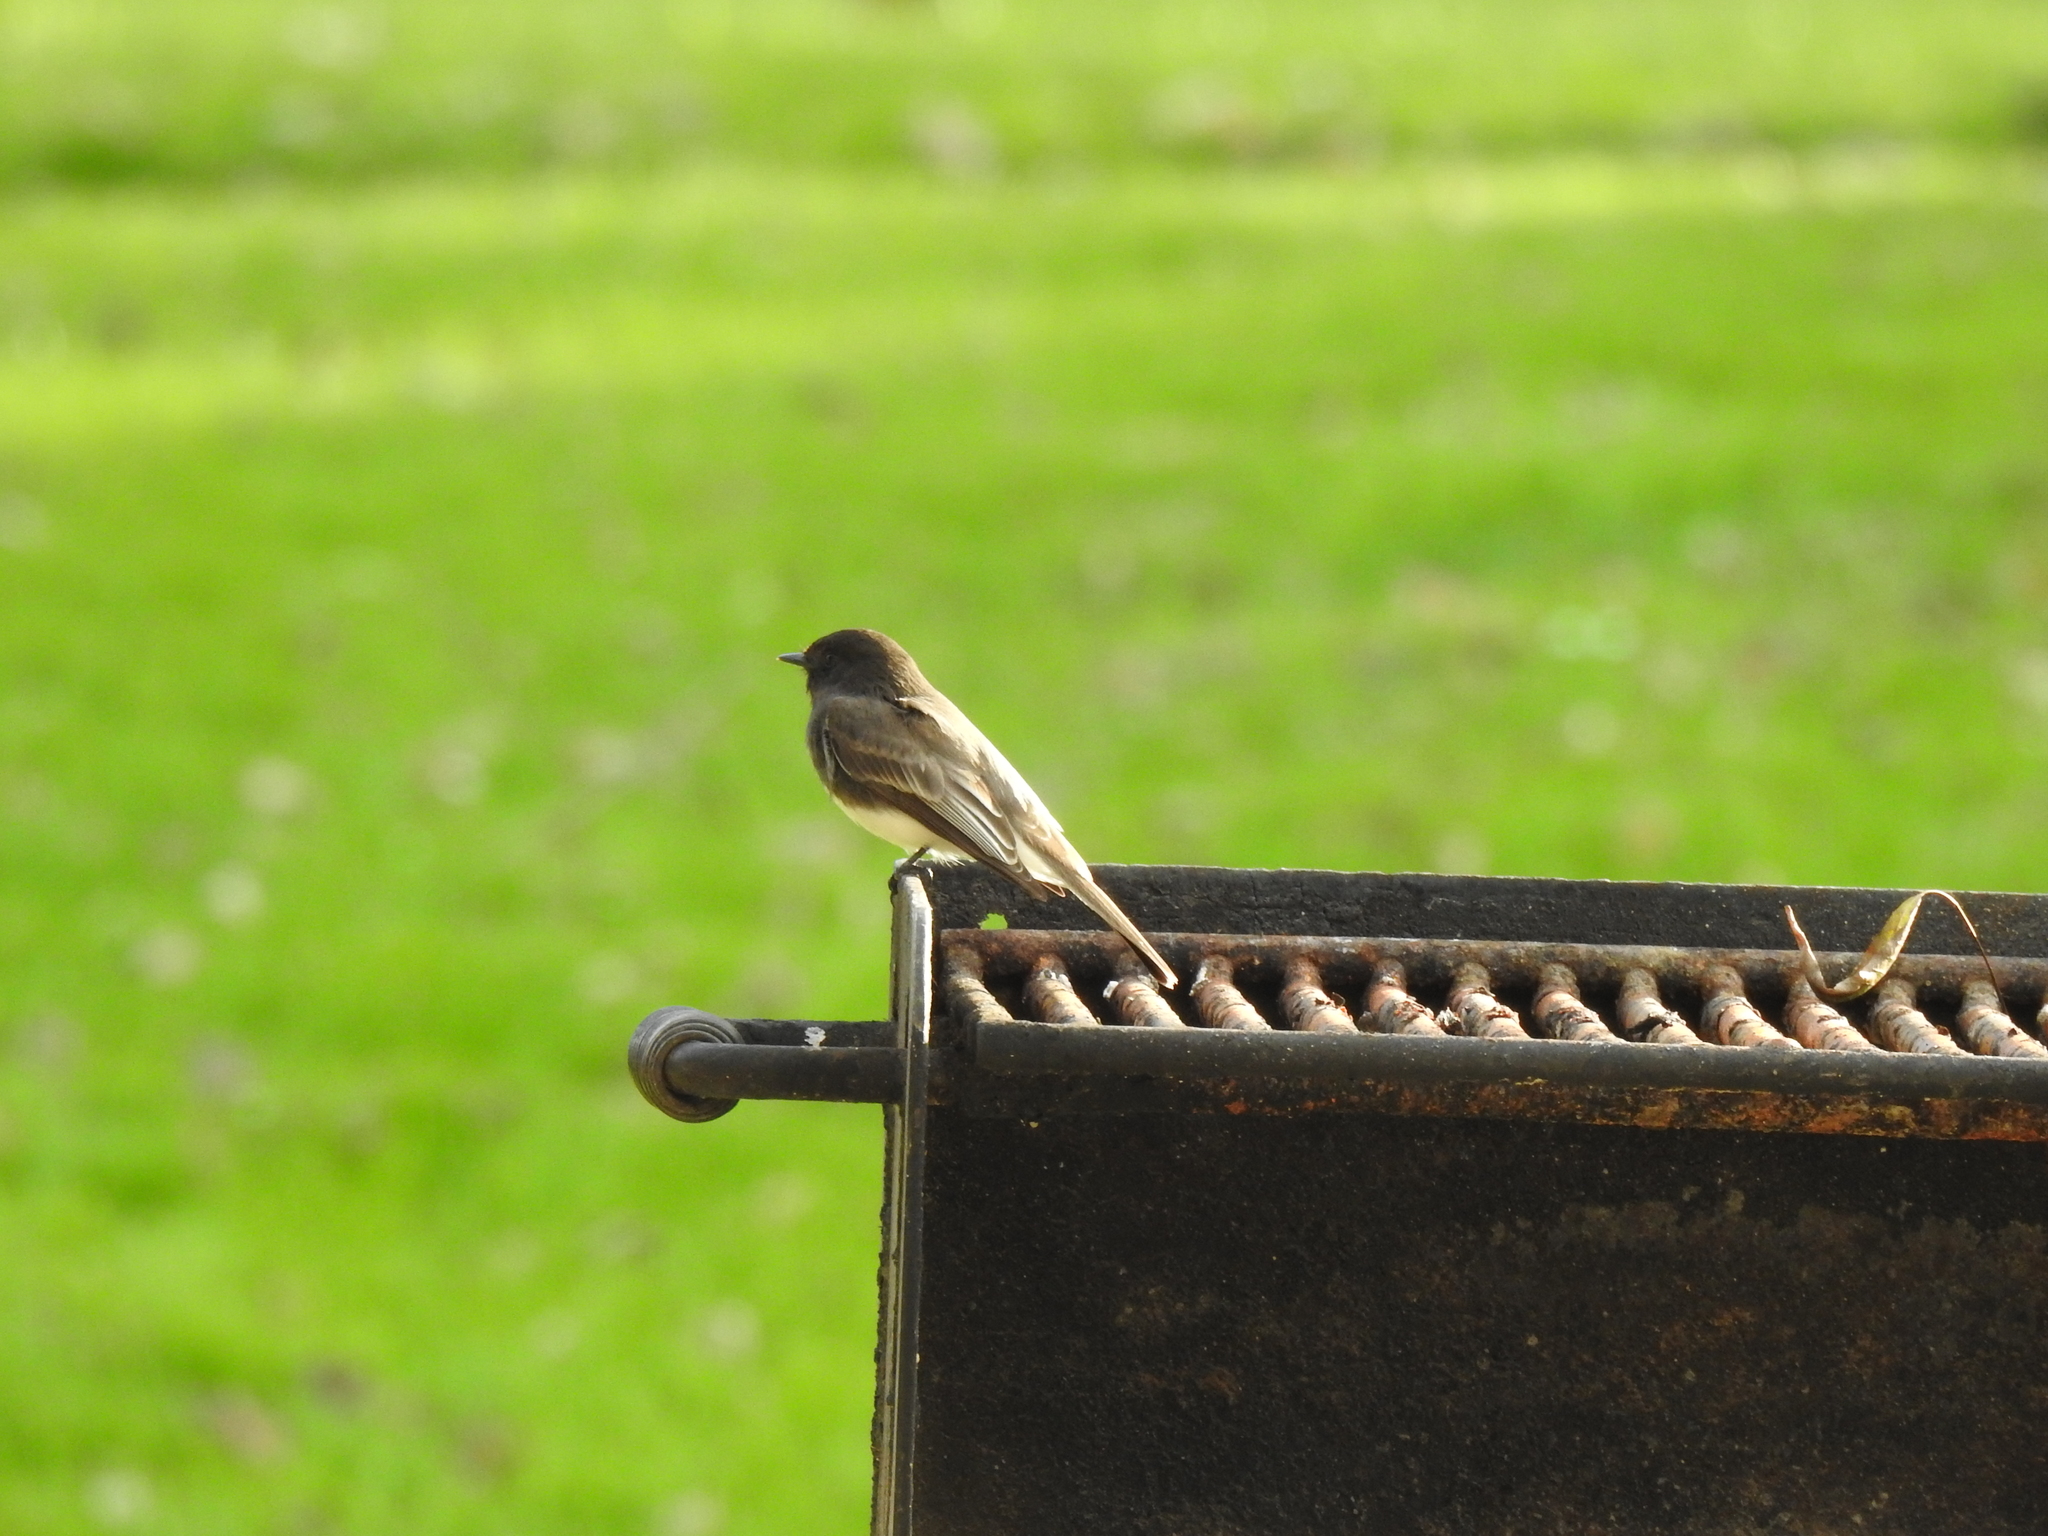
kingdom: Animalia
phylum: Chordata
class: Aves
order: Passeriformes
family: Tyrannidae
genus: Sayornis
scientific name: Sayornis nigricans
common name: Black phoebe
